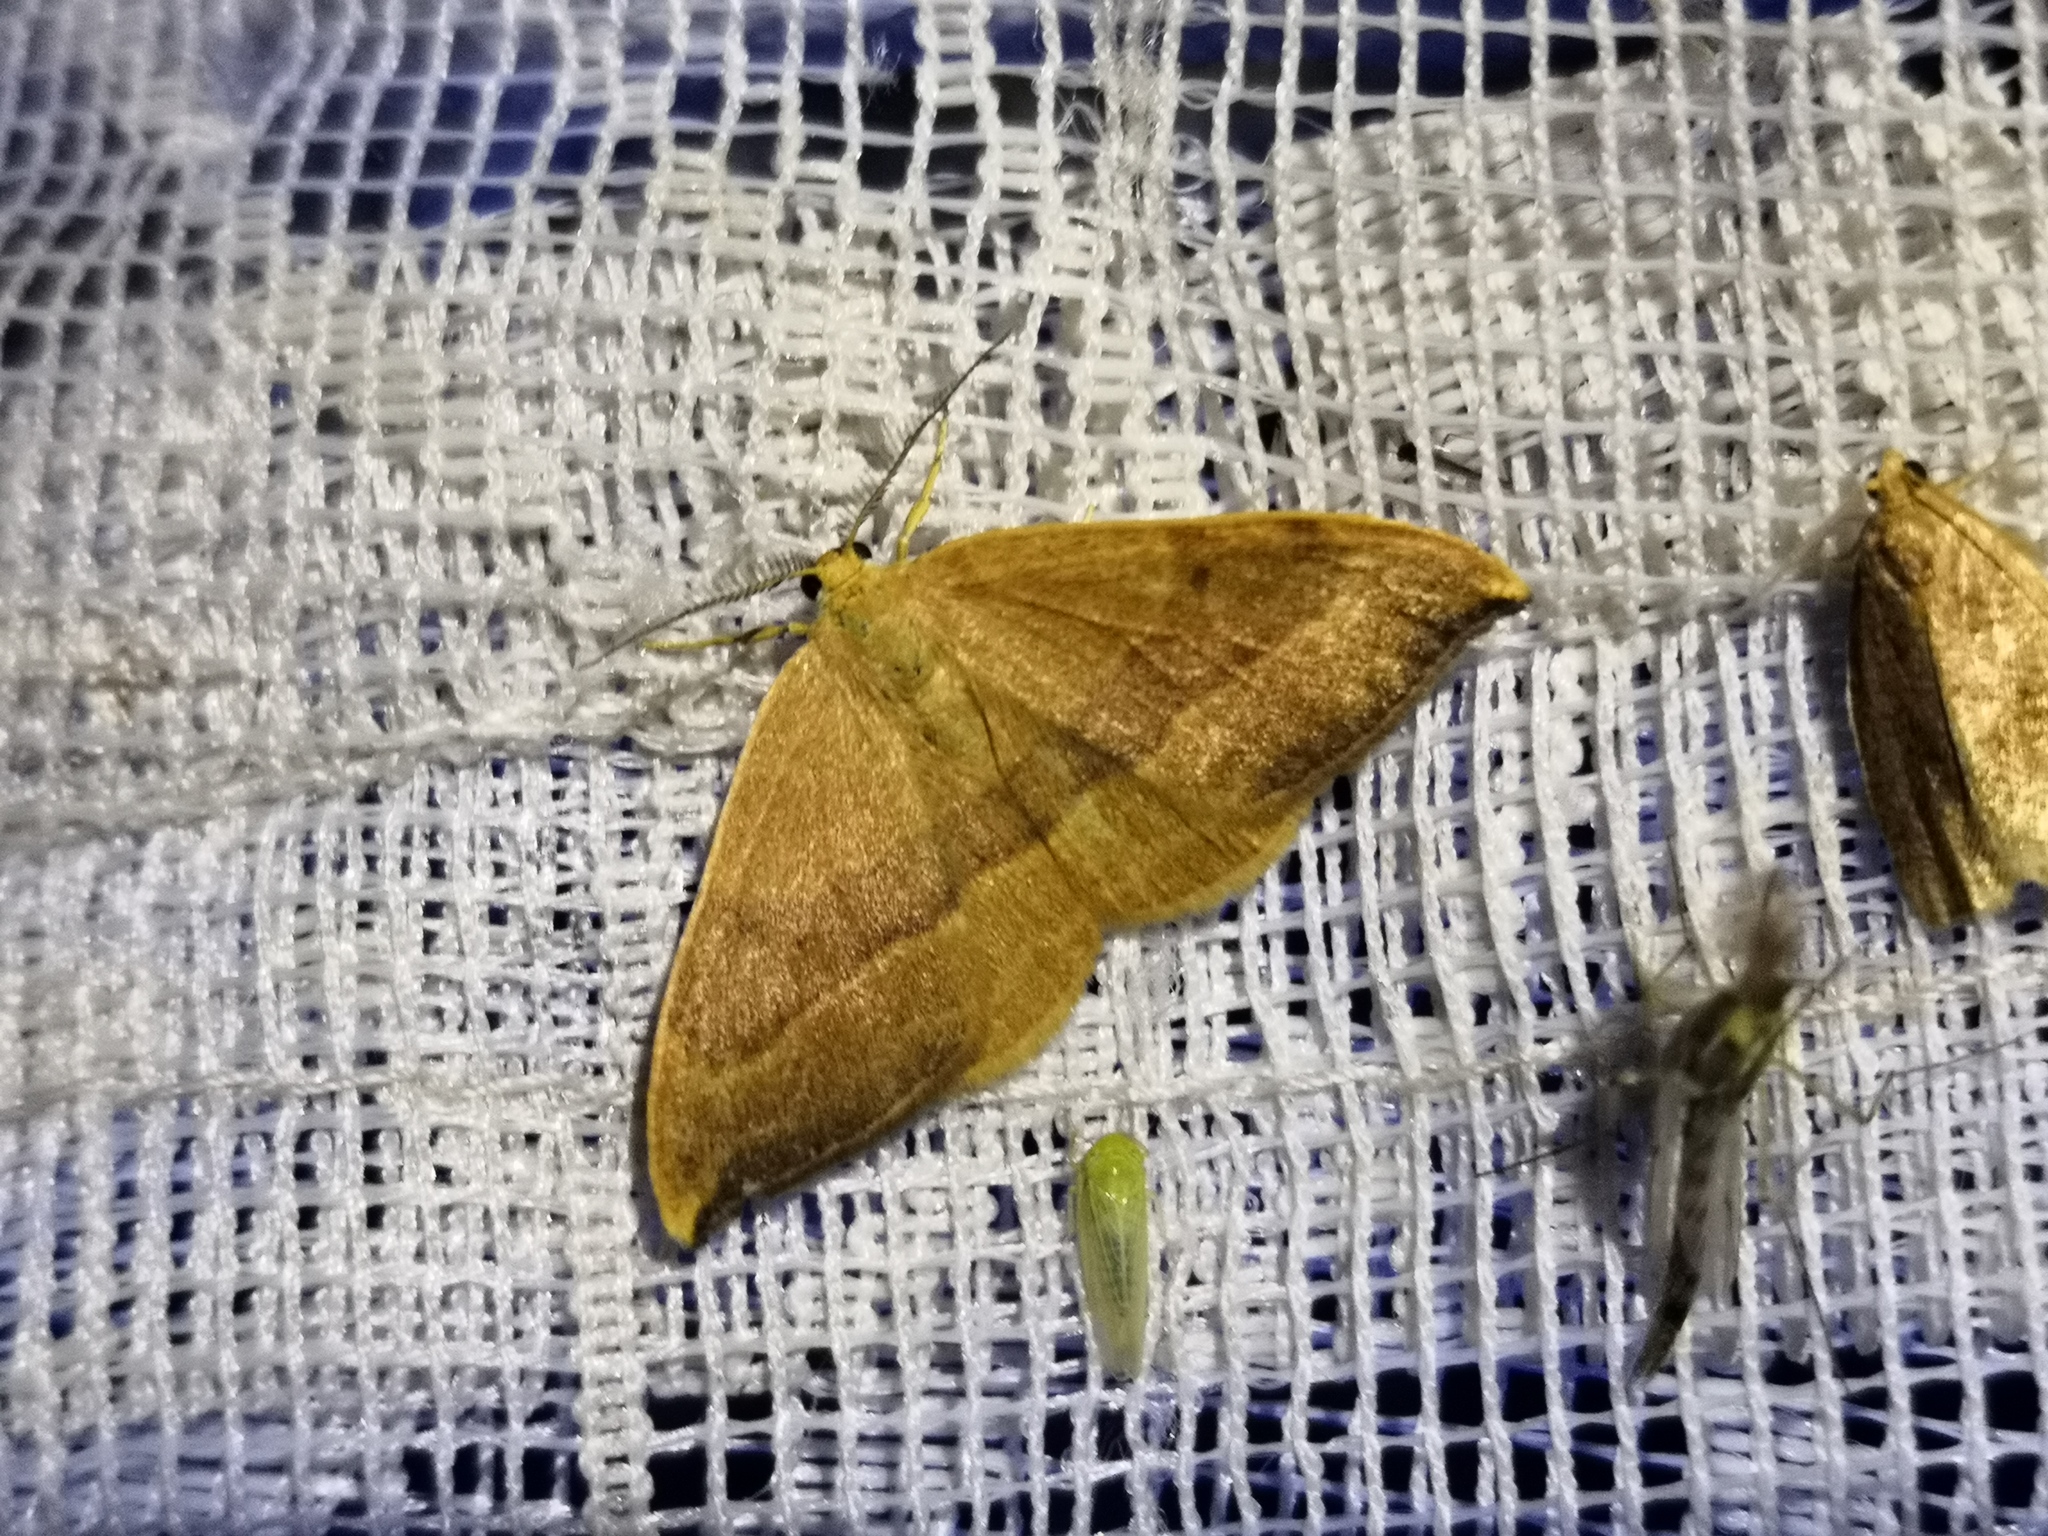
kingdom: Animalia
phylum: Arthropoda
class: Insecta
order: Lepidoptera
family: Drepanidae
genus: Watsonalla
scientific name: Watsonalla cultraria
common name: Barred hook-tip
